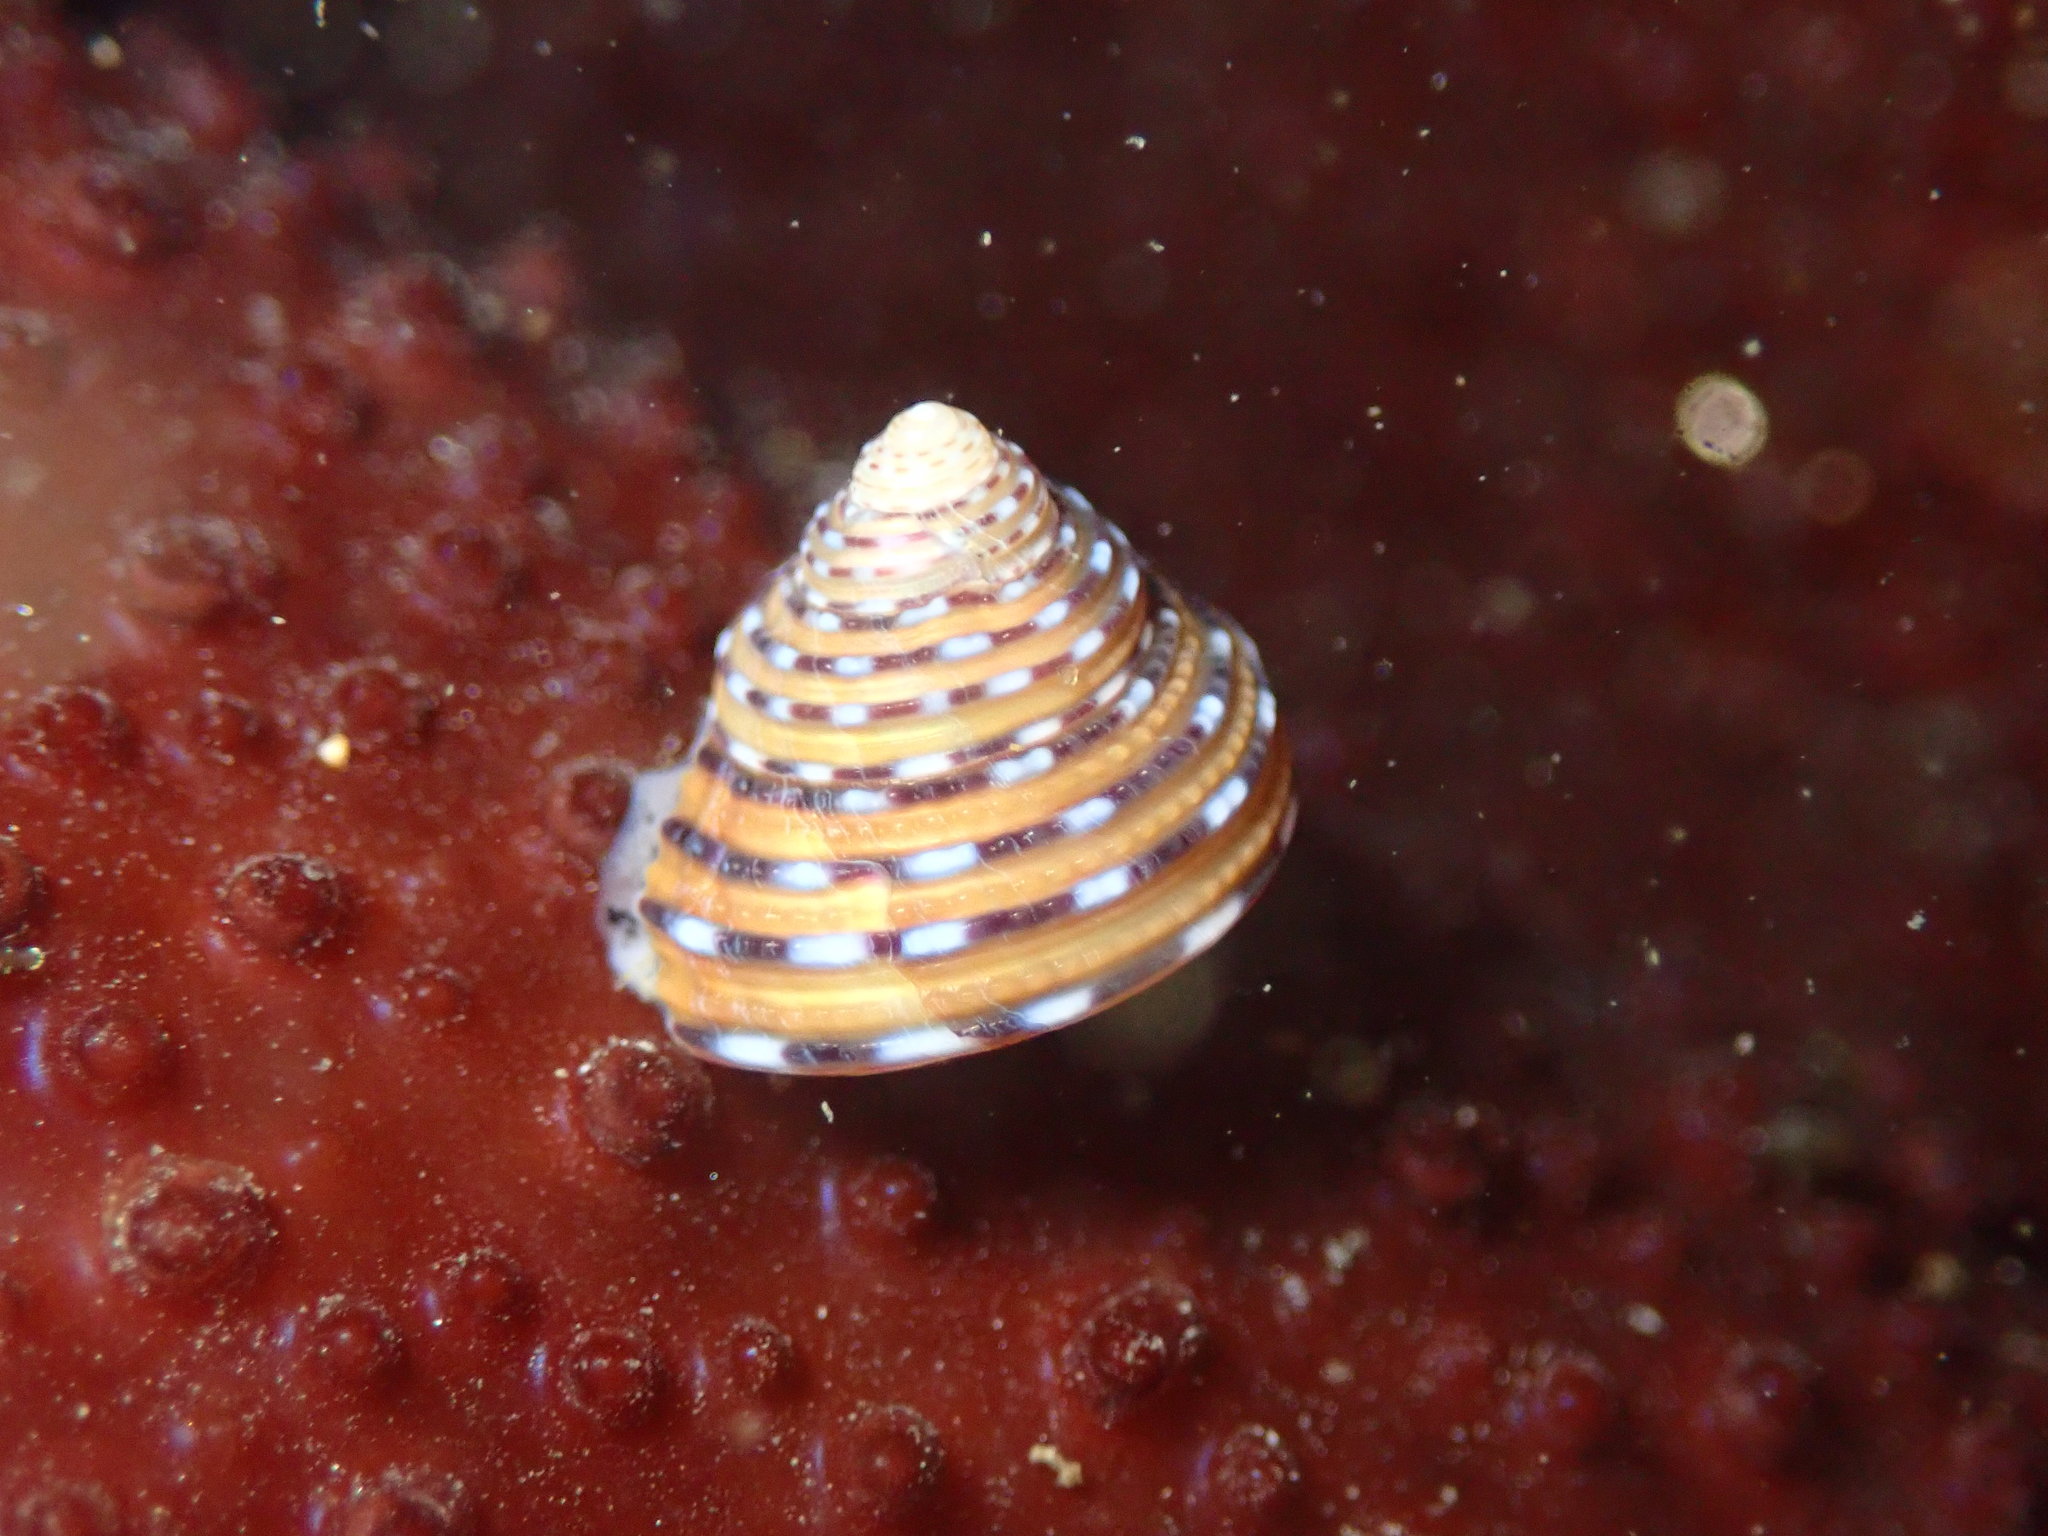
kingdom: Animalia
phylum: Mollusca
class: Gastropoda
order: Trochida
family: Calliostomatidae
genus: Calliostoma
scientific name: Calliostoma tricolor
